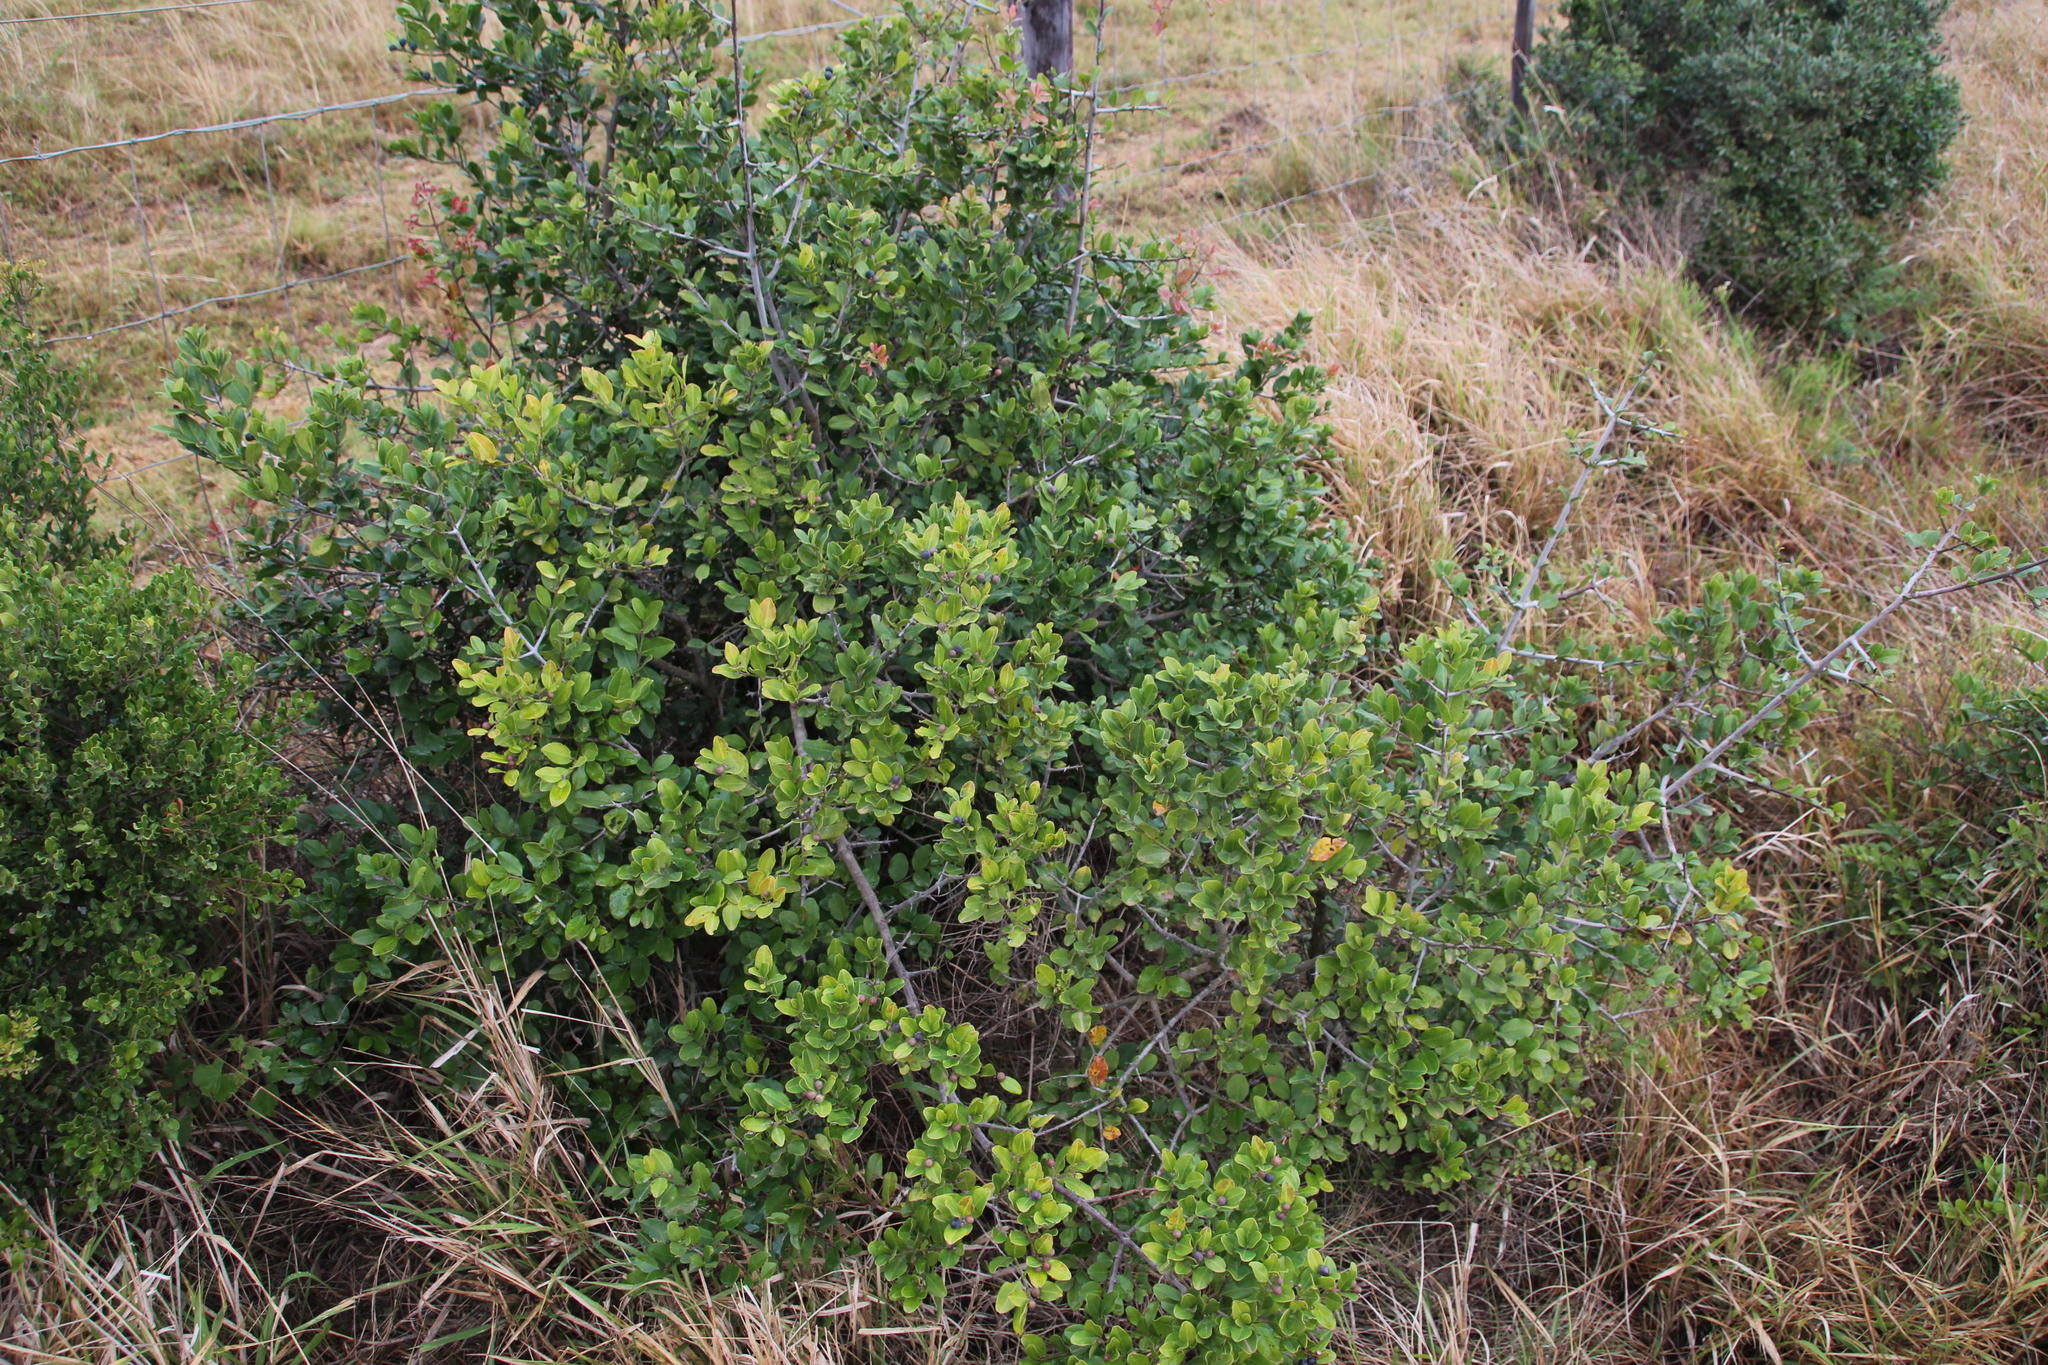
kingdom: Plantae
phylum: Tracheophyta
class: Magnoliopsida
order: Rosales
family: Rhamnaceae
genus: Scutia
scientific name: Scutia myrtina
